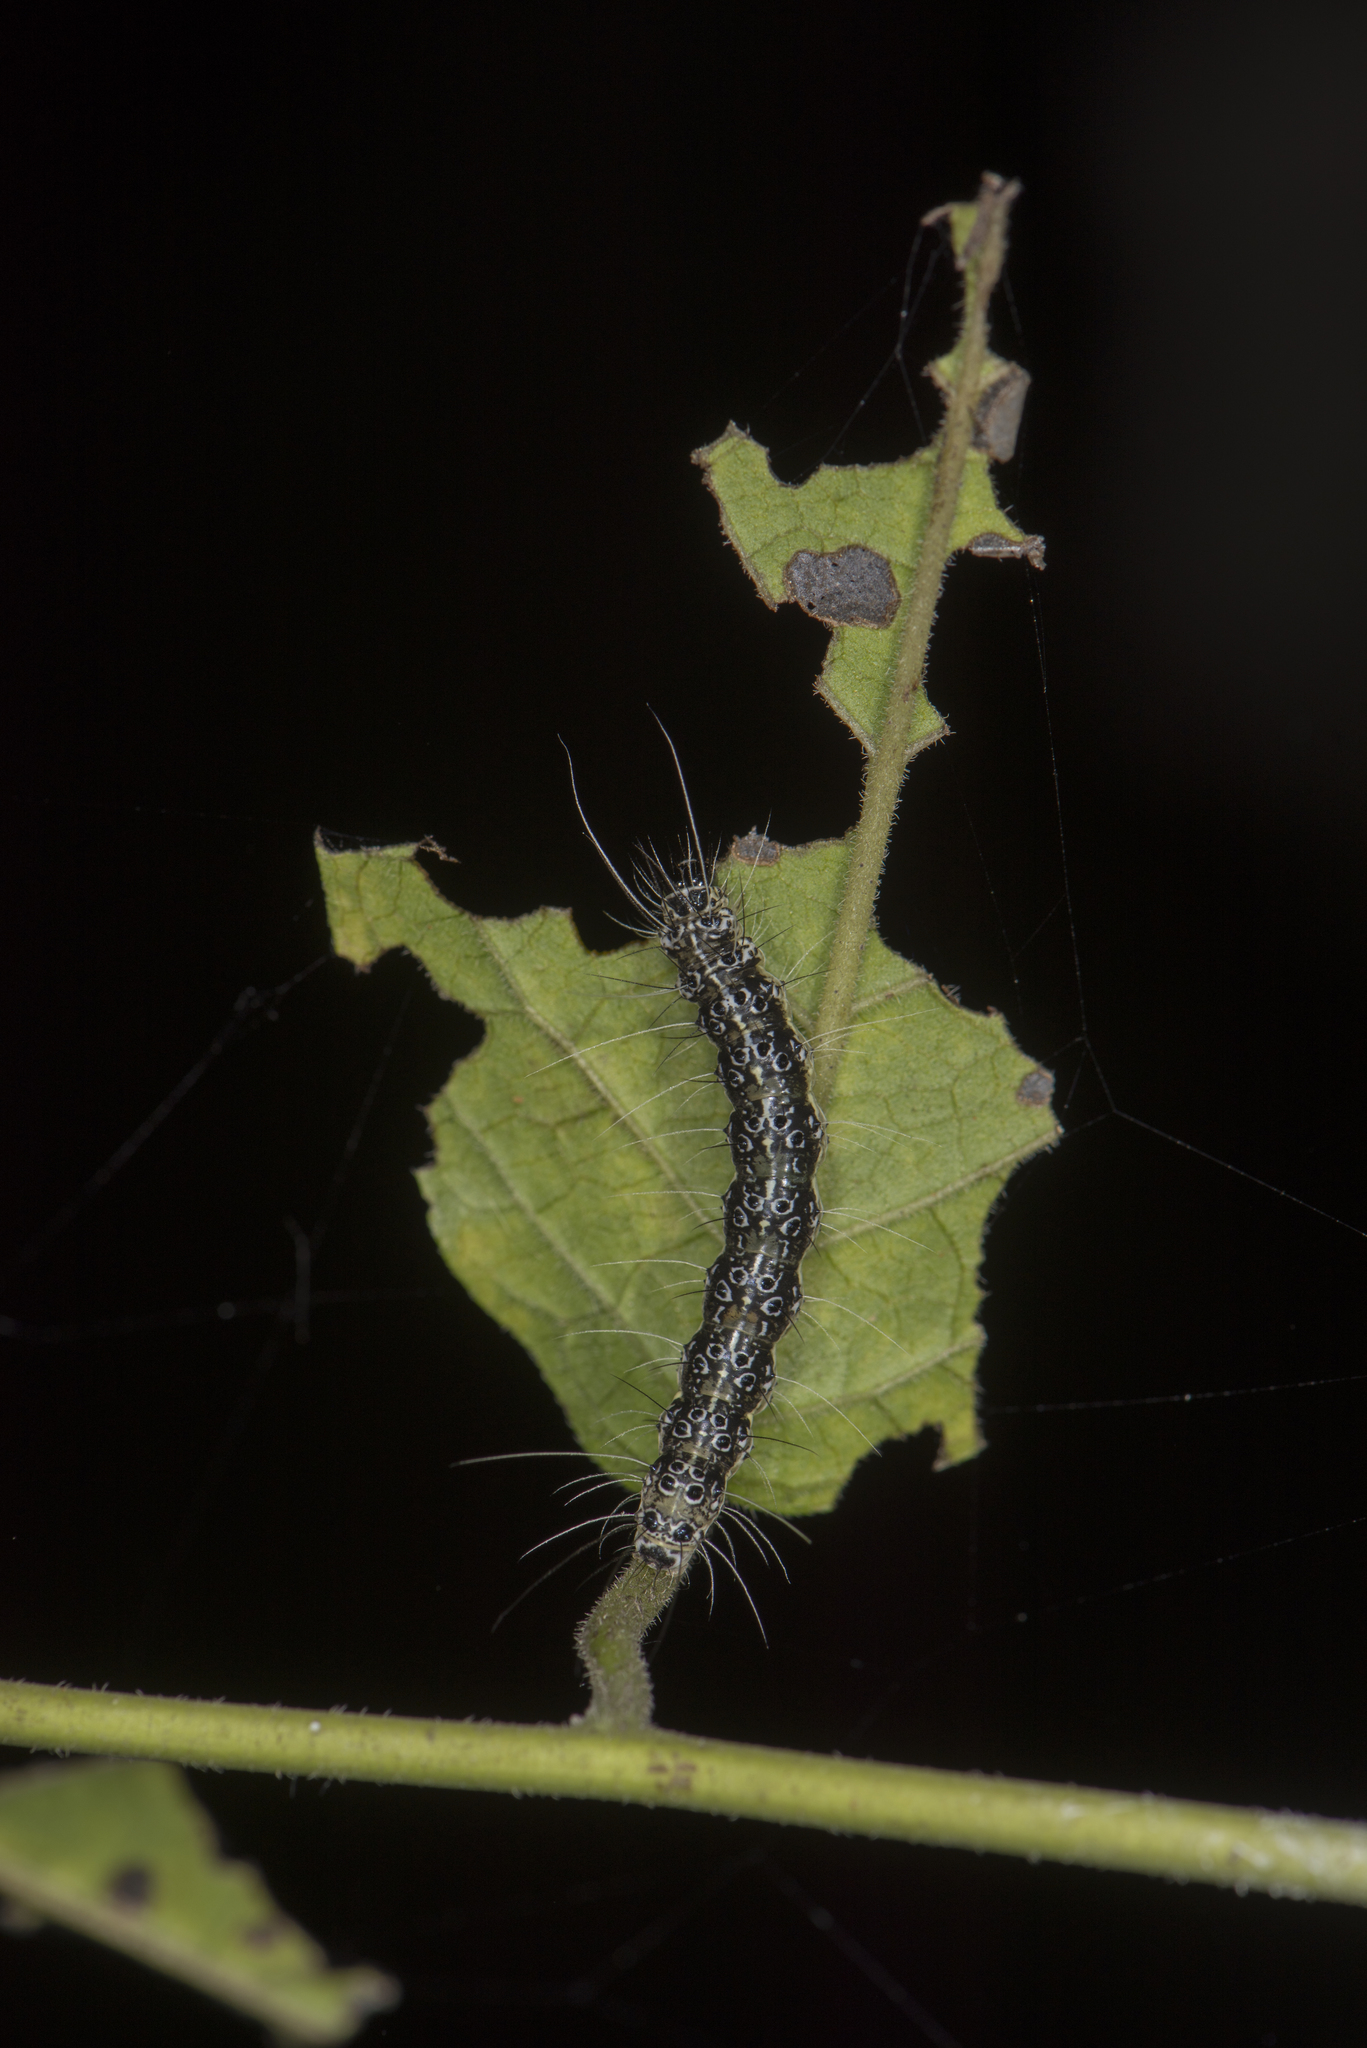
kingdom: Animalia
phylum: Arthropoda
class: Insecta
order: Lepidoptera
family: Erebidae
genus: Utetheisa
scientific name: Utetheisa inconstans
